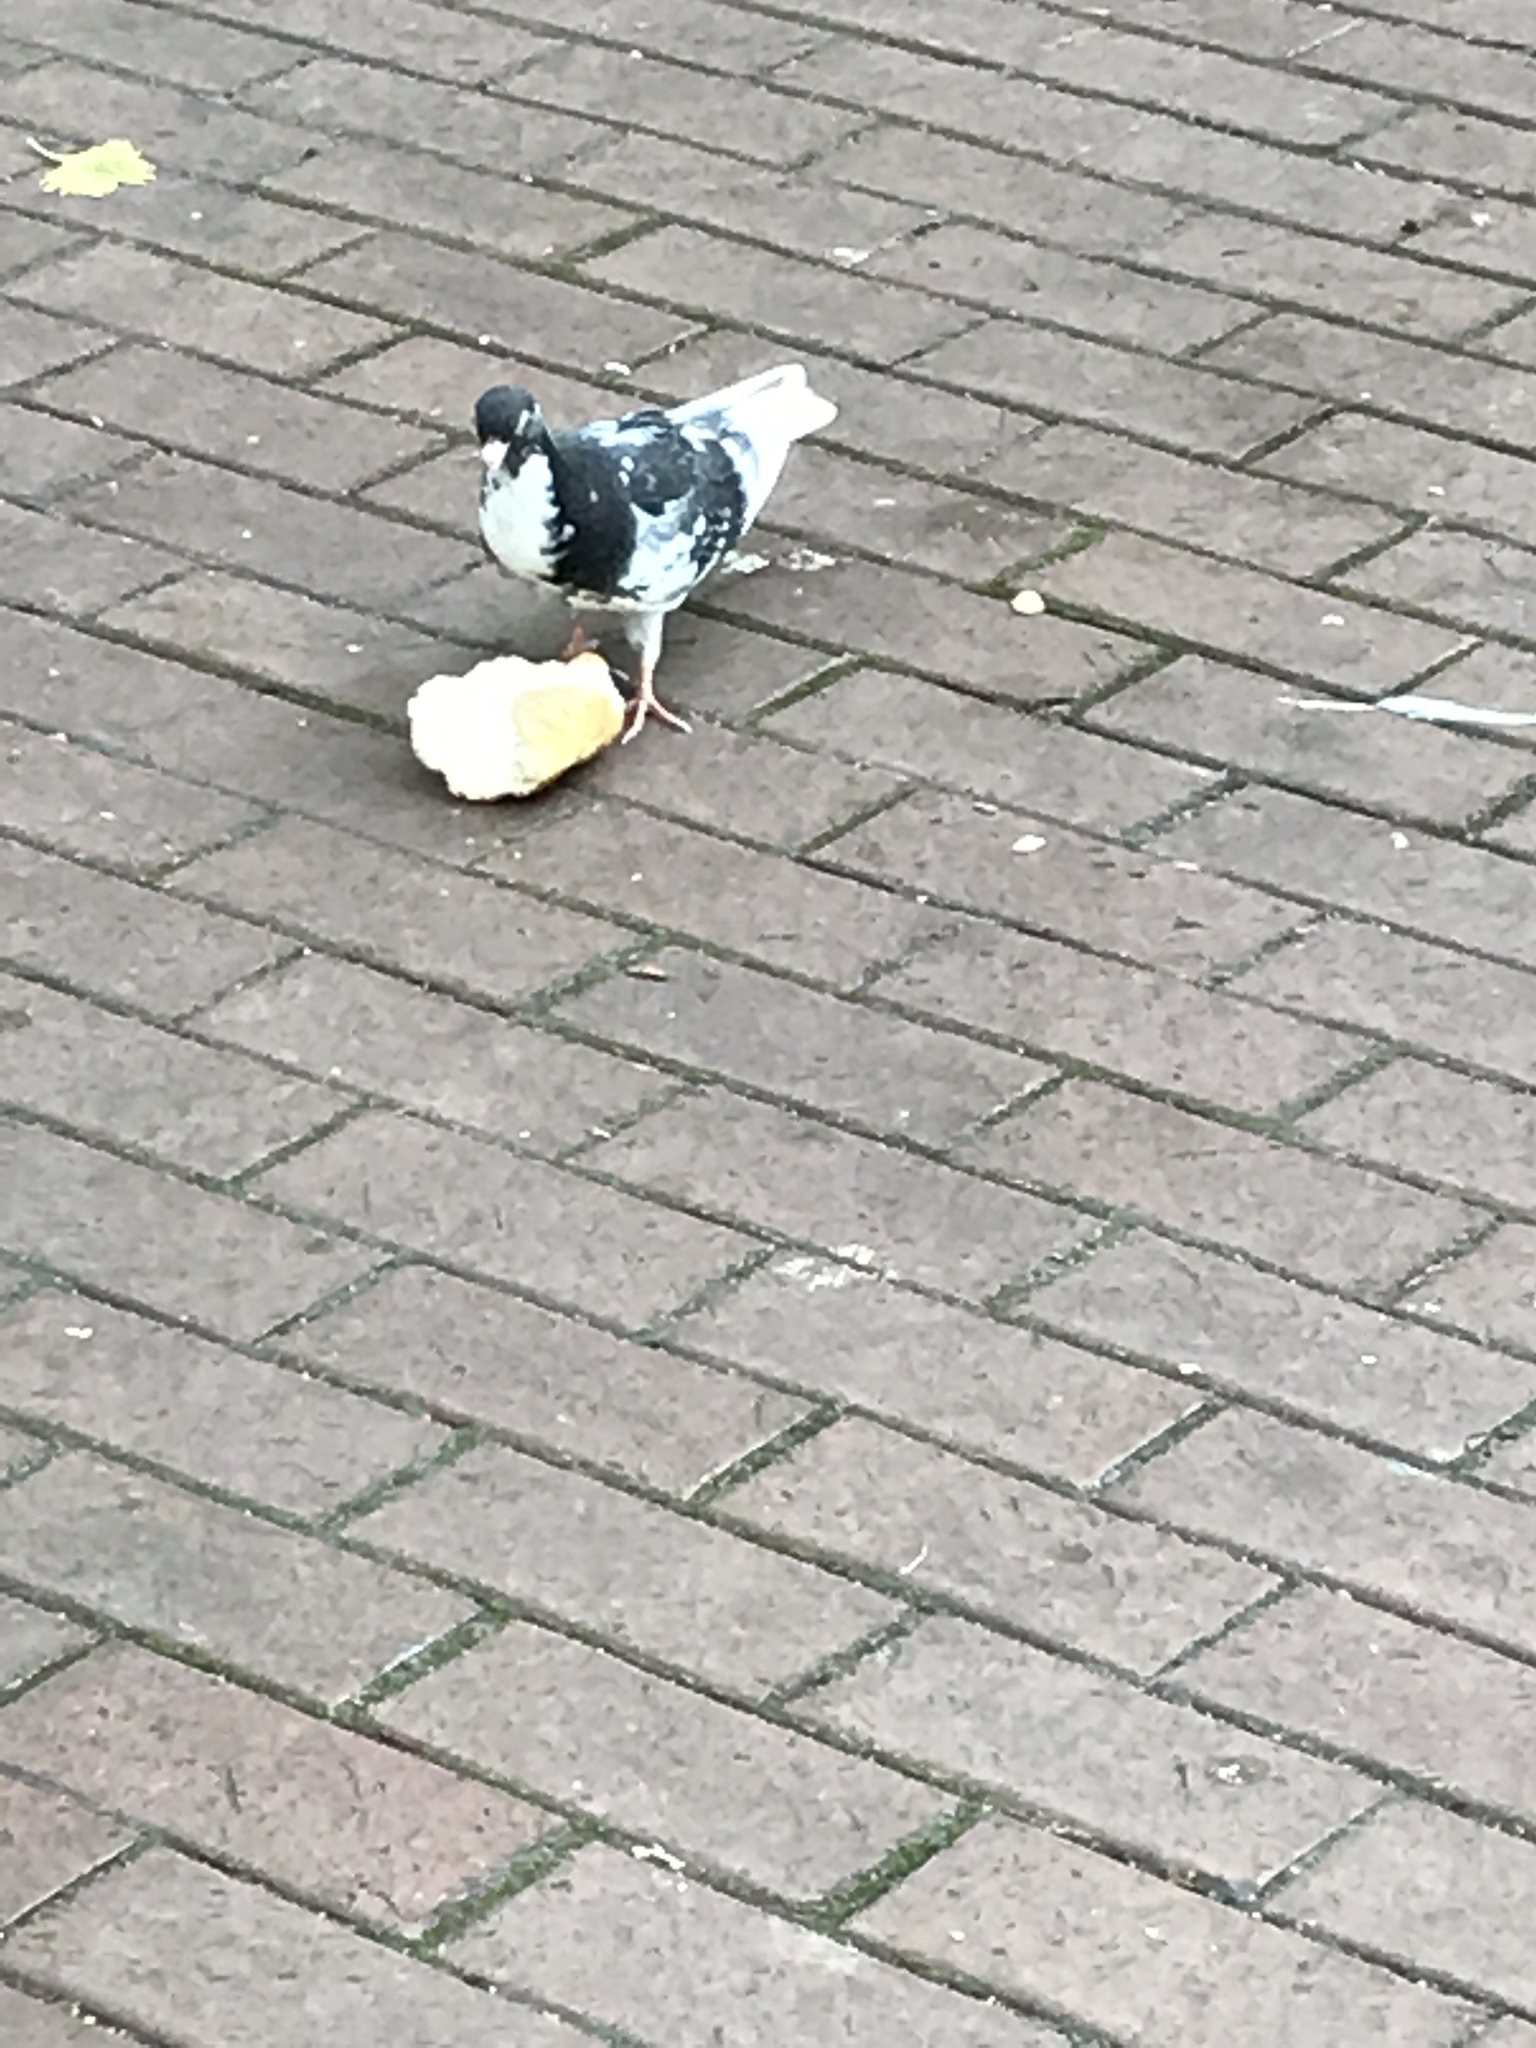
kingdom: Animalia
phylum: Chordata
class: Aves
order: Columbiformes
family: Columbidae
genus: Columba
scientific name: Columba livia
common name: Rock pigeon
